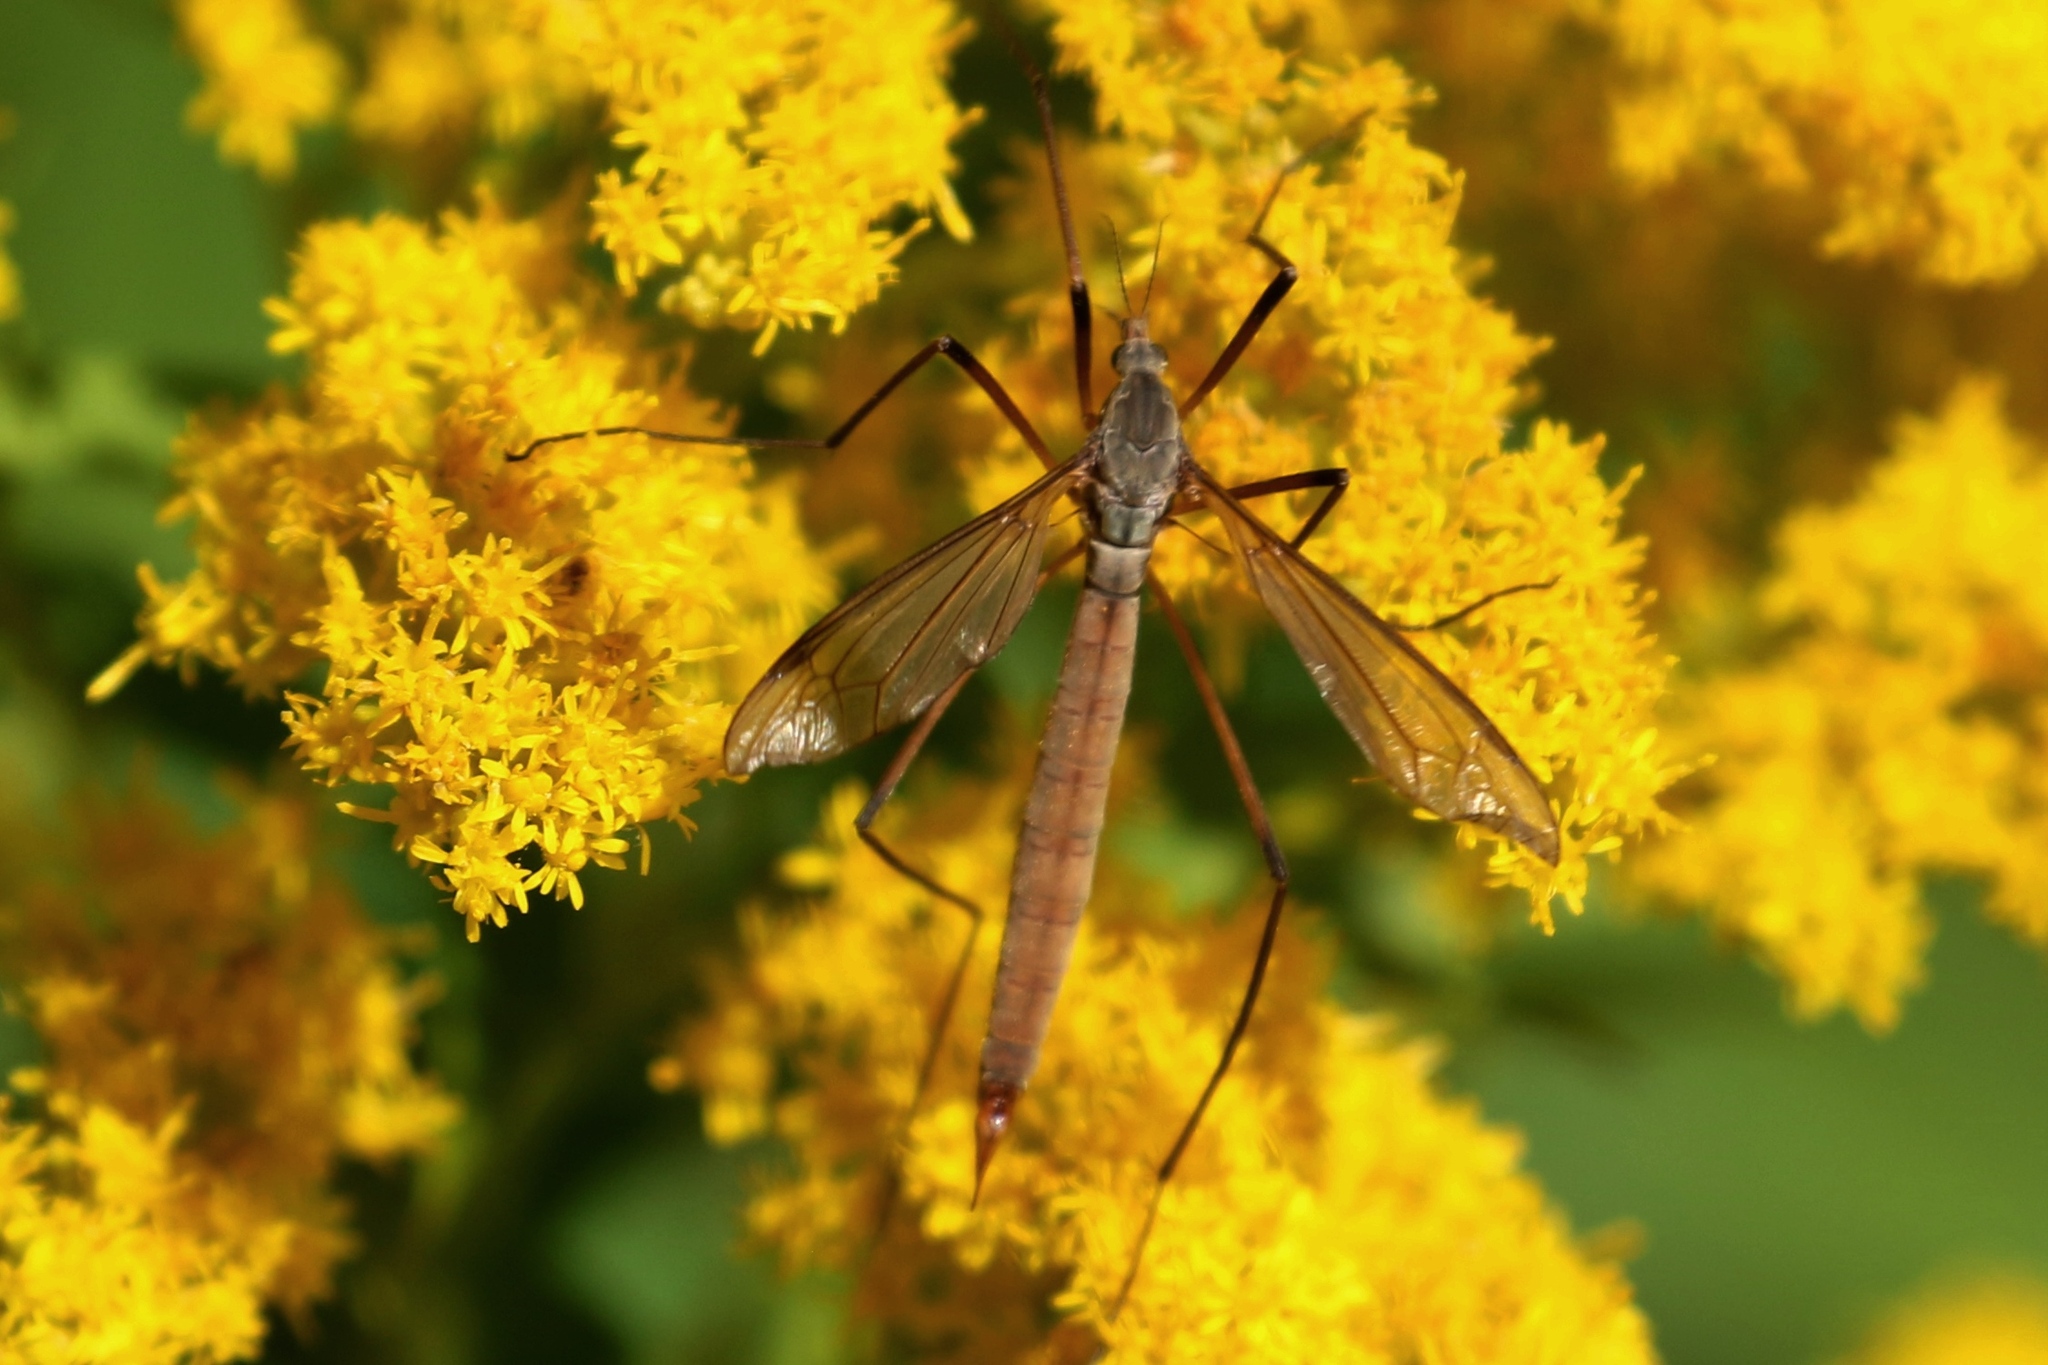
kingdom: Animalia
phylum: Arthropoda
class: Insecta
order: Hymenoptera
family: Eumenidae
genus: Polistes
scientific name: Polistes fuscatus
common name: Dark paper wasp
